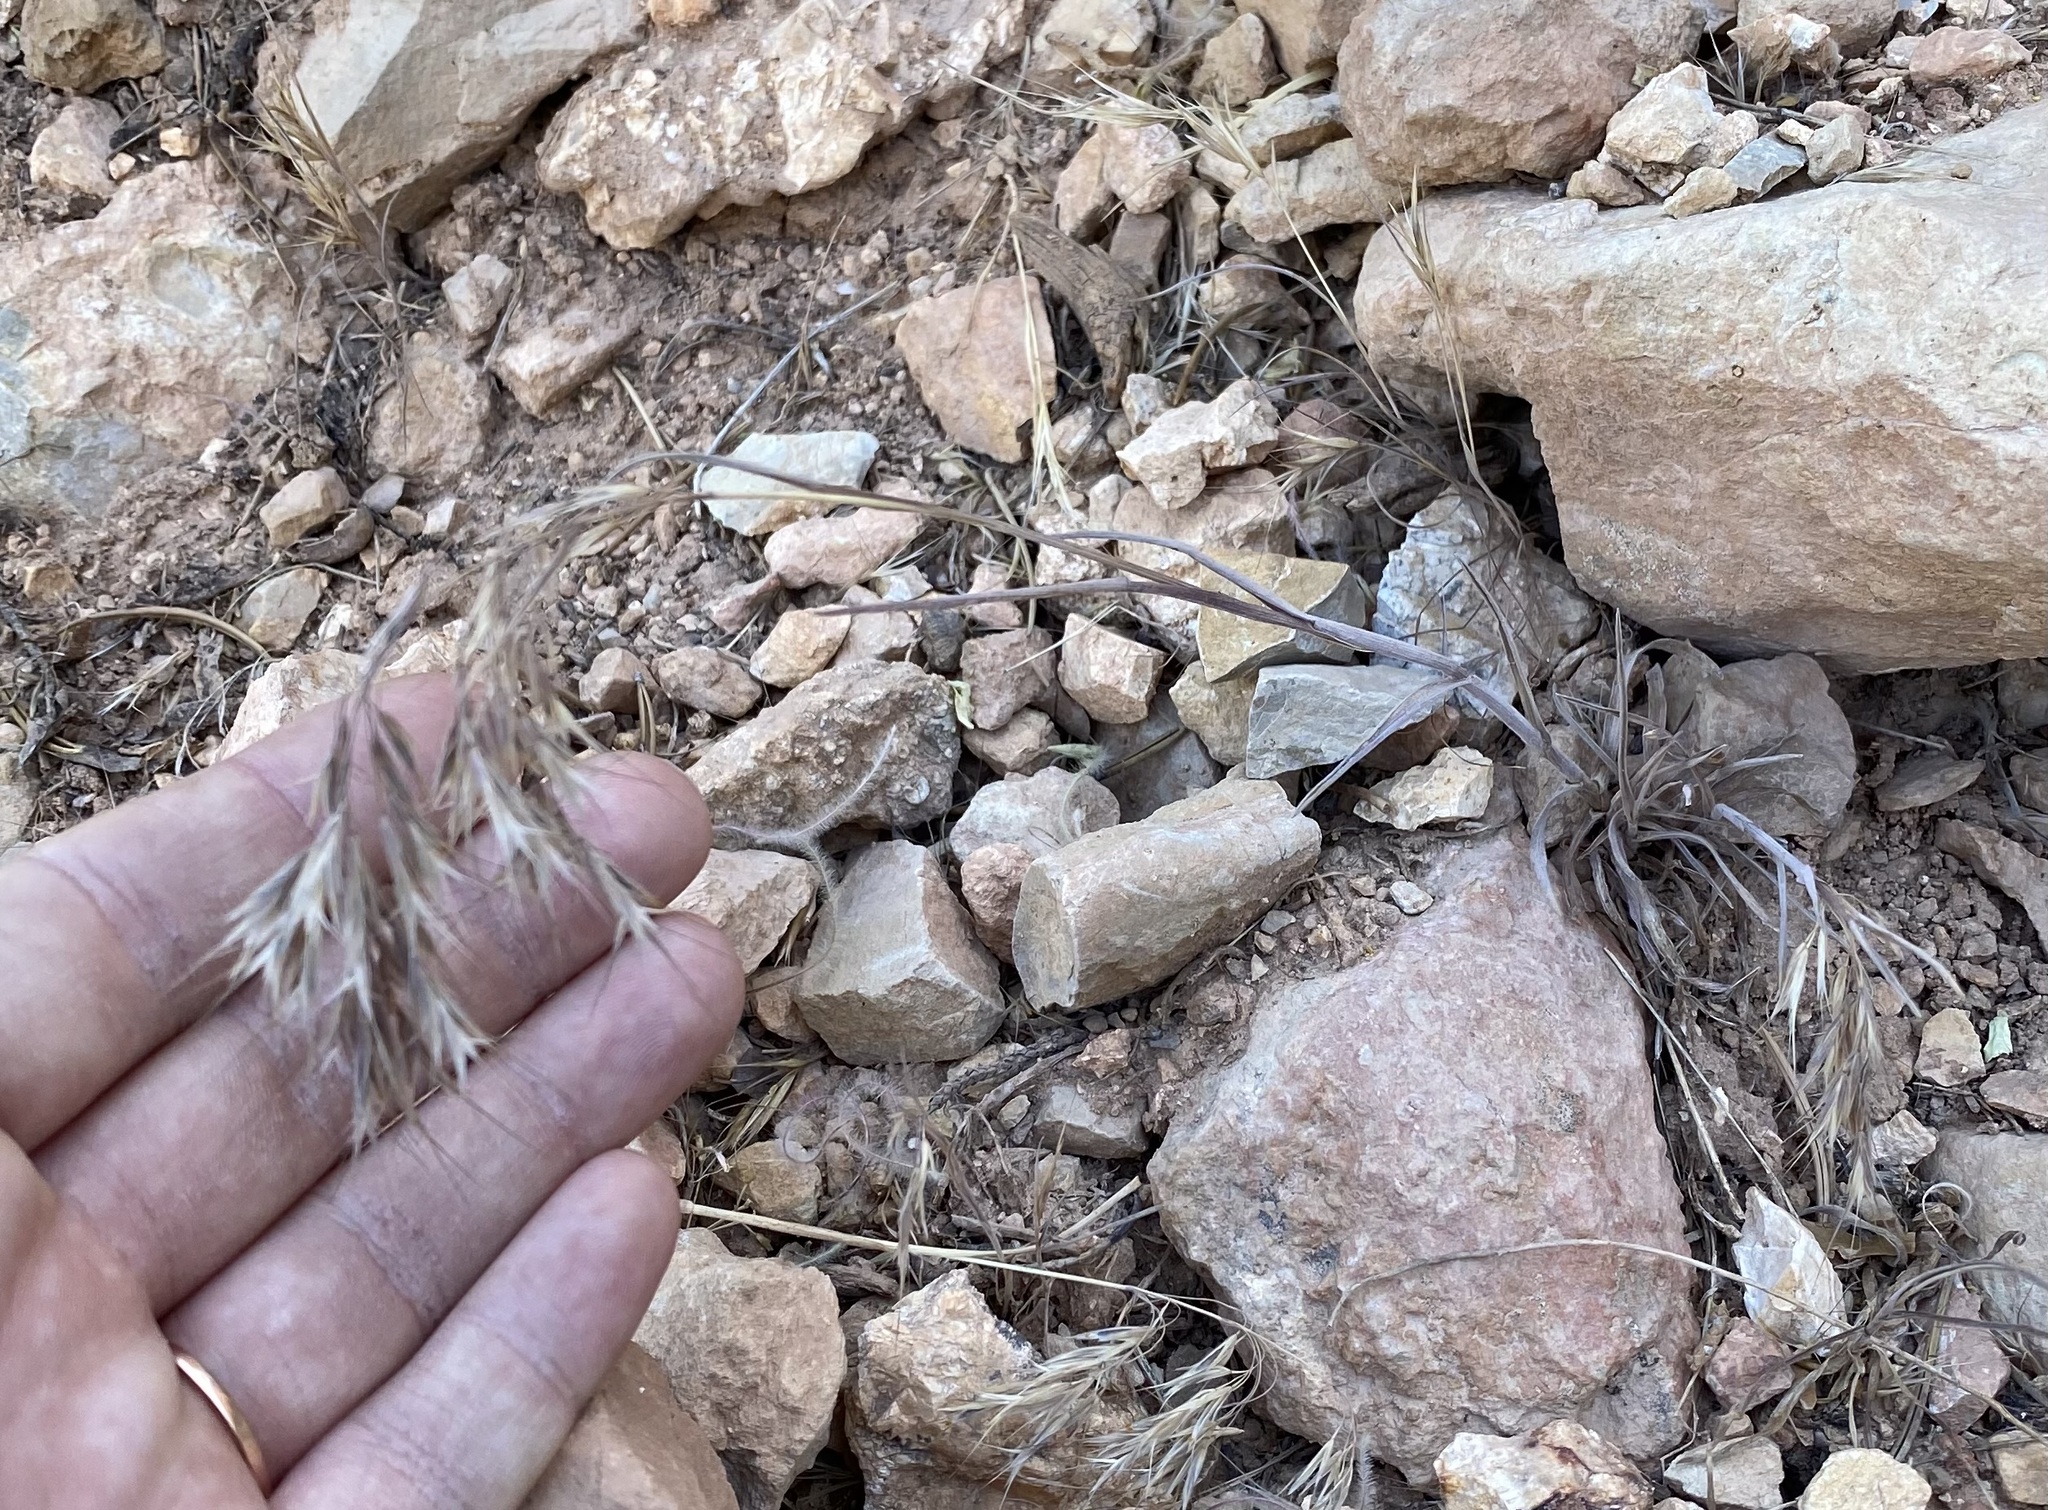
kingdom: Plantae
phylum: Tracheophyta
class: Liliopsida
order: Poales
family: Poaceae
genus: Bromus
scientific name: Bromus tectorum
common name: Cheatgrass
